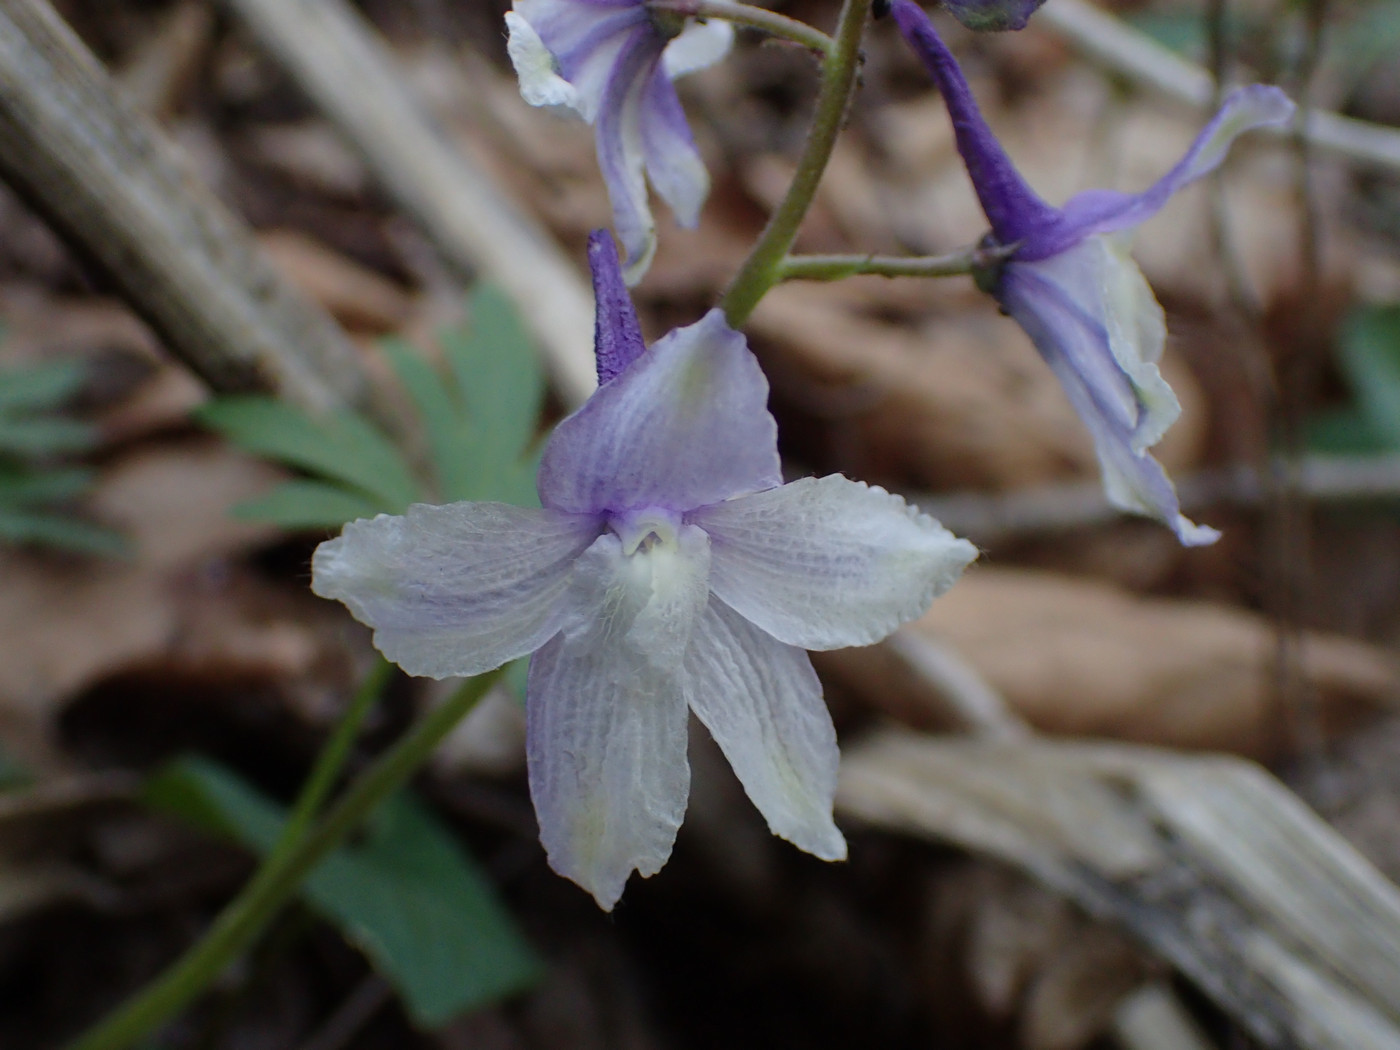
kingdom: Plantae
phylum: Tracheophyta
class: Magnoliopsida
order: Ranunculales
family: Ranunculaceae
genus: Delphinium
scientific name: Delphinium tricorne
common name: Dwarf larkspur
